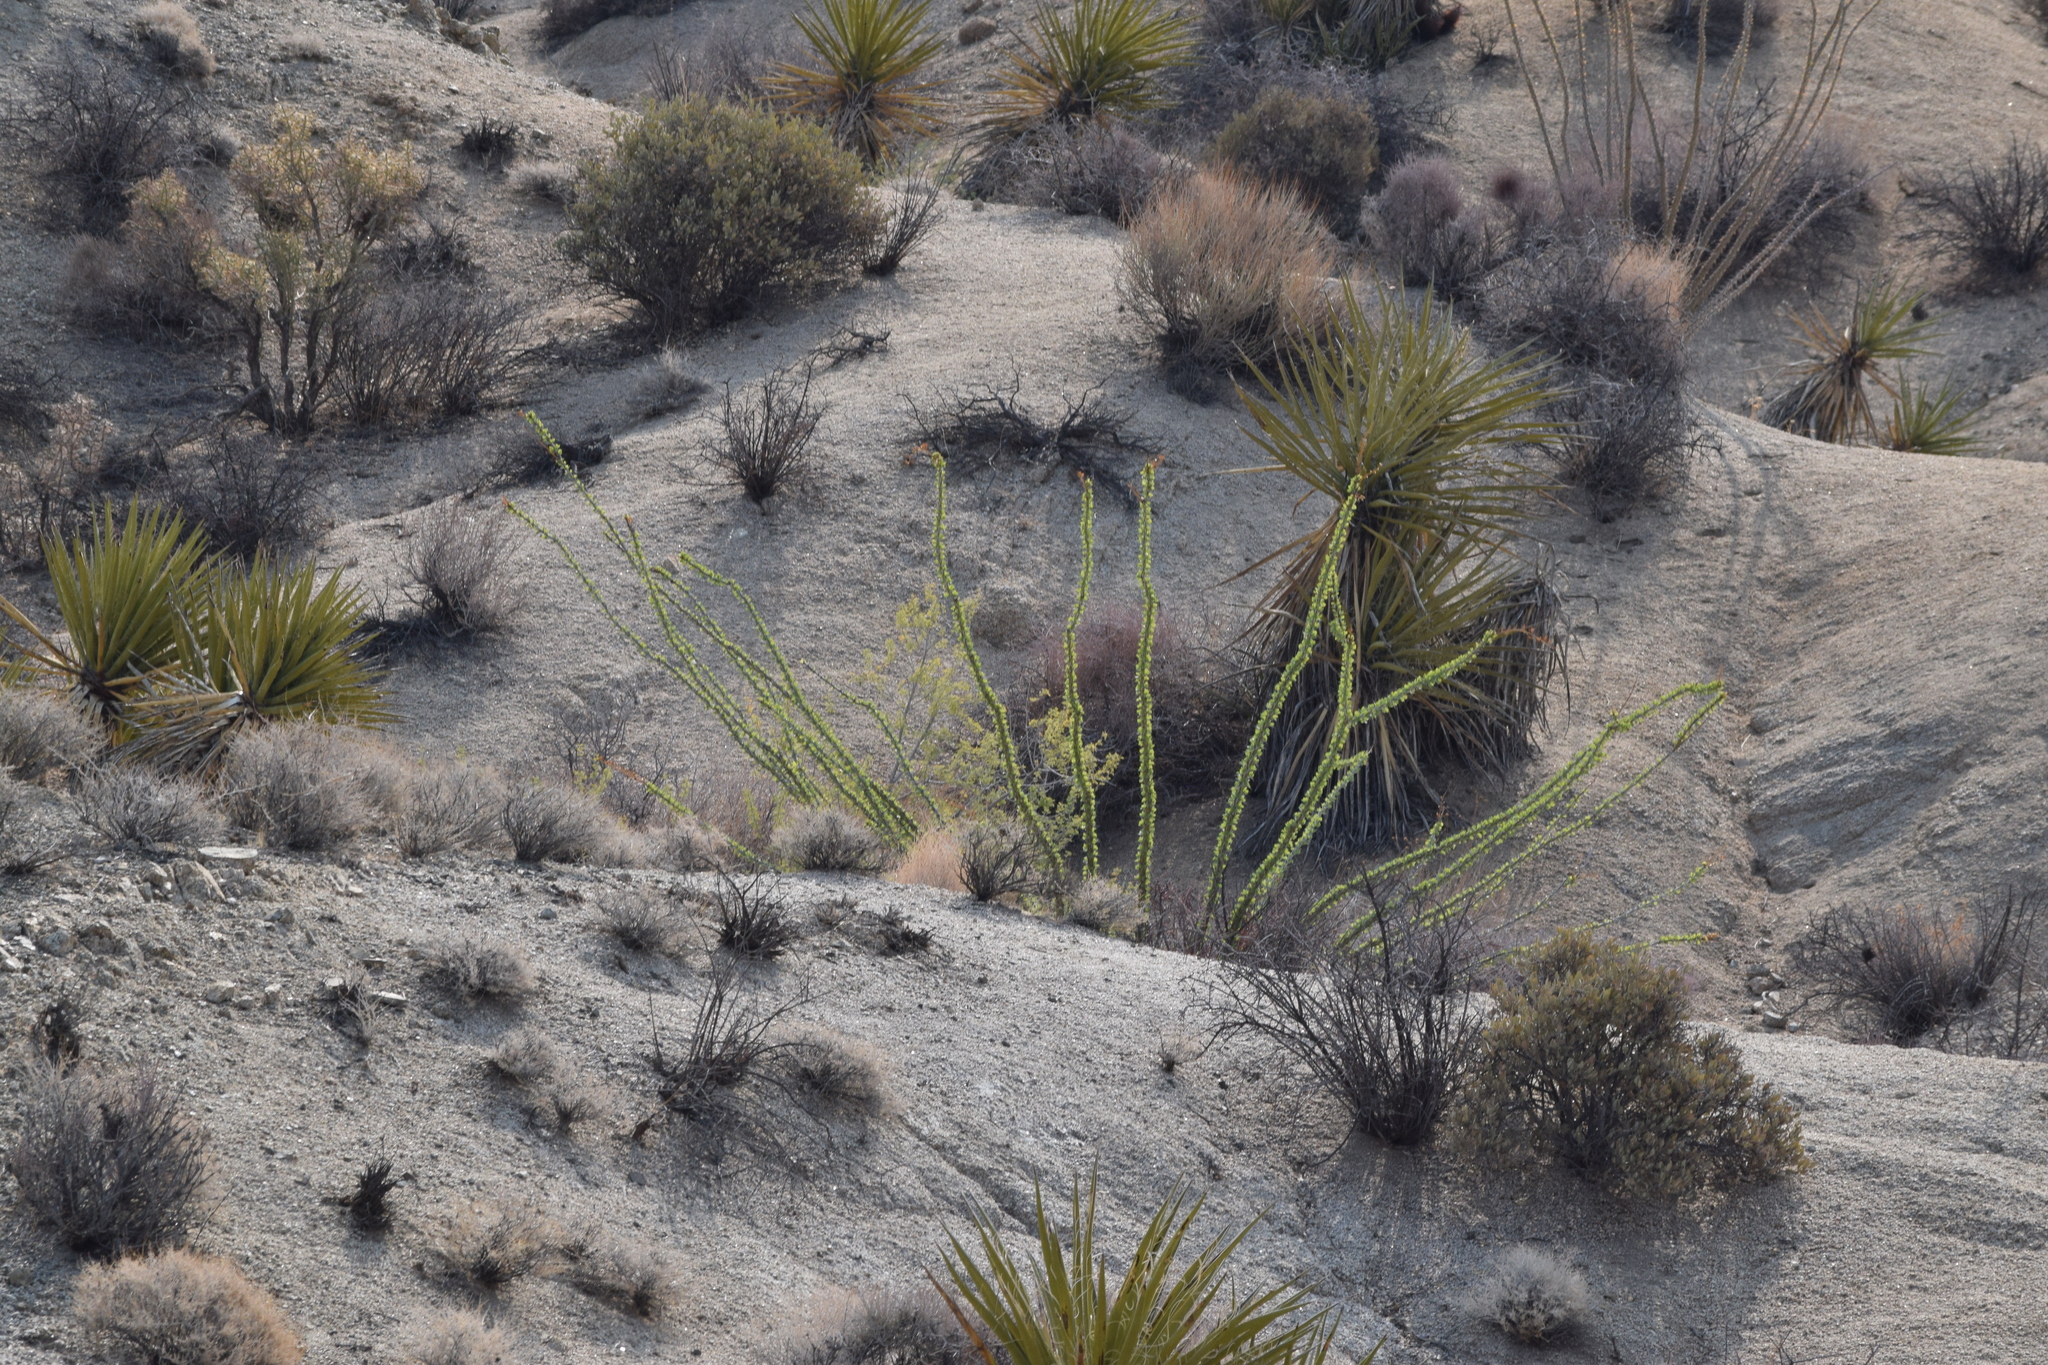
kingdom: Plantae
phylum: Tracheophyta
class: Magnoliopsida
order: Ericales
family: Fouquieriaceae
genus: Fouquieria
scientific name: Fouquieria splendens
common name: Vine-cactus
